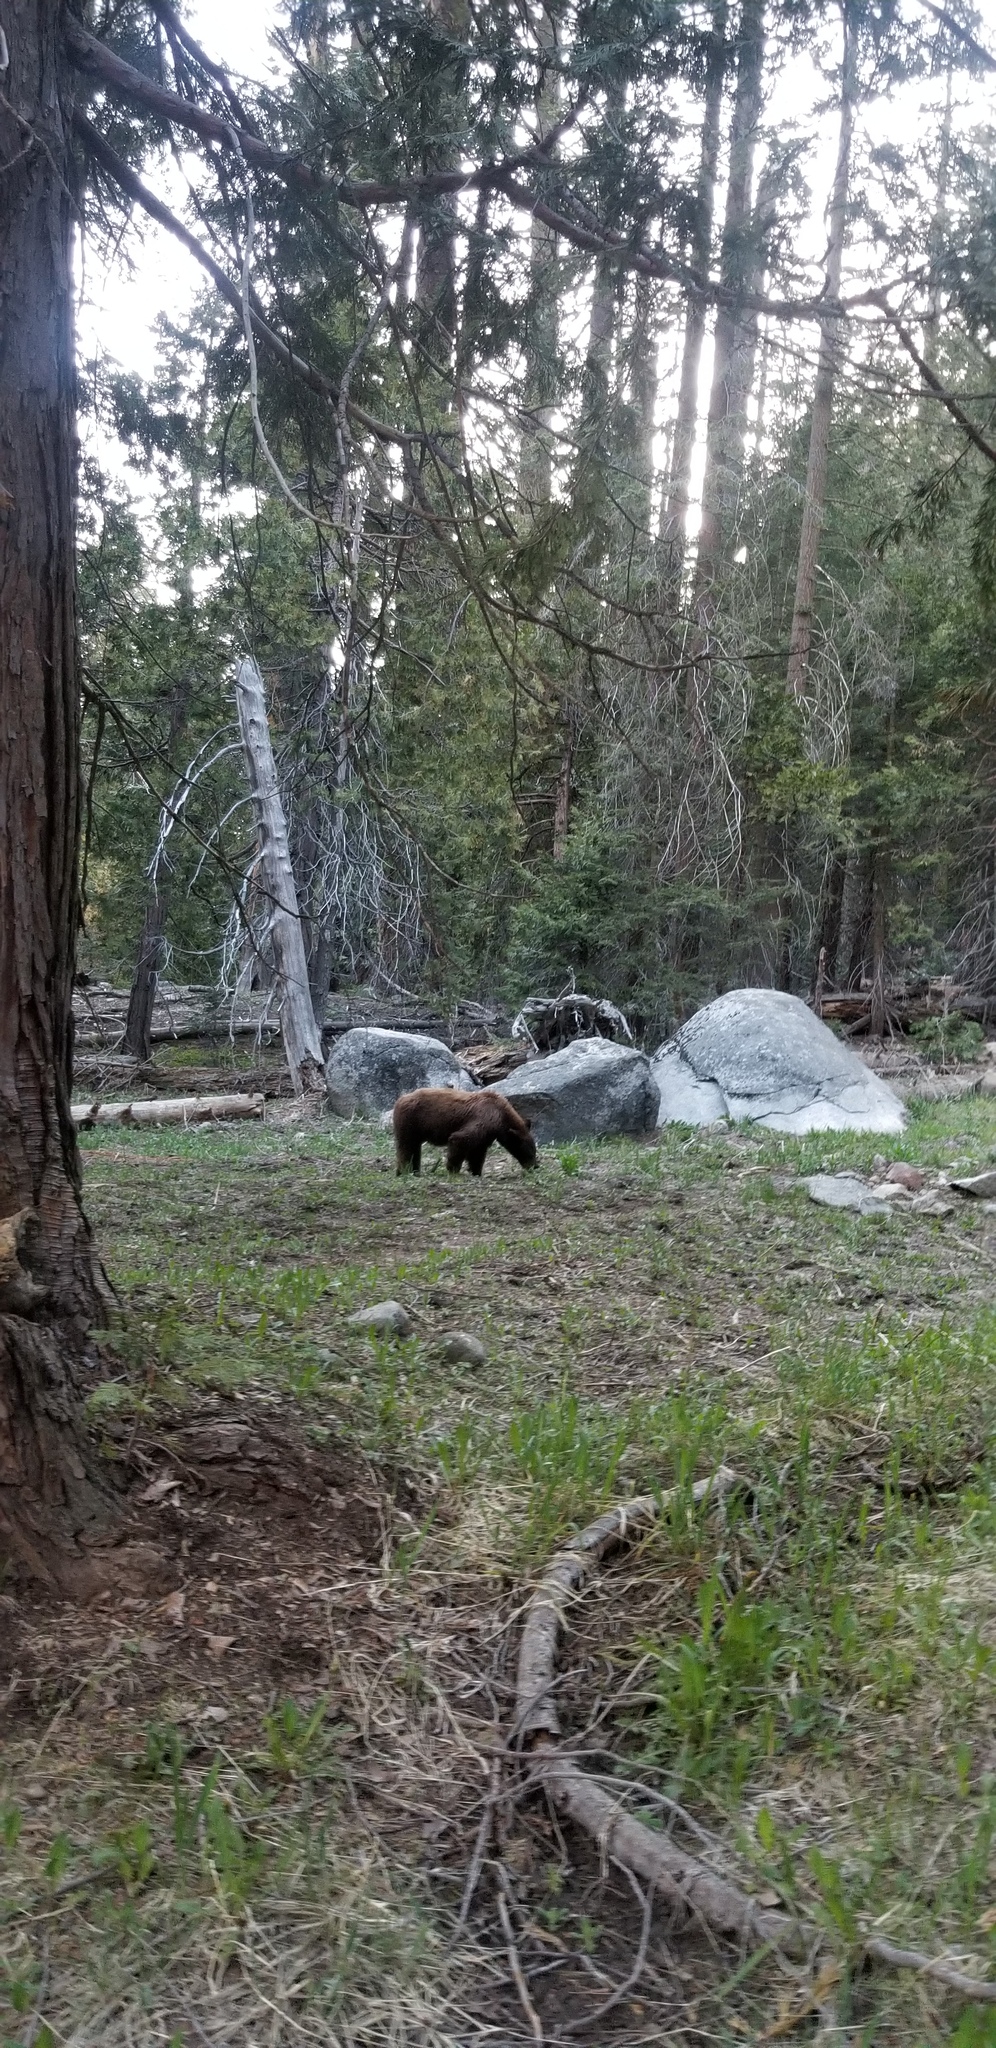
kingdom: Animalia
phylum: Chordata
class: Mammalia
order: Carnivora
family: Ursidae
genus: Ursus
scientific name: Ursus americanus
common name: American black bear
